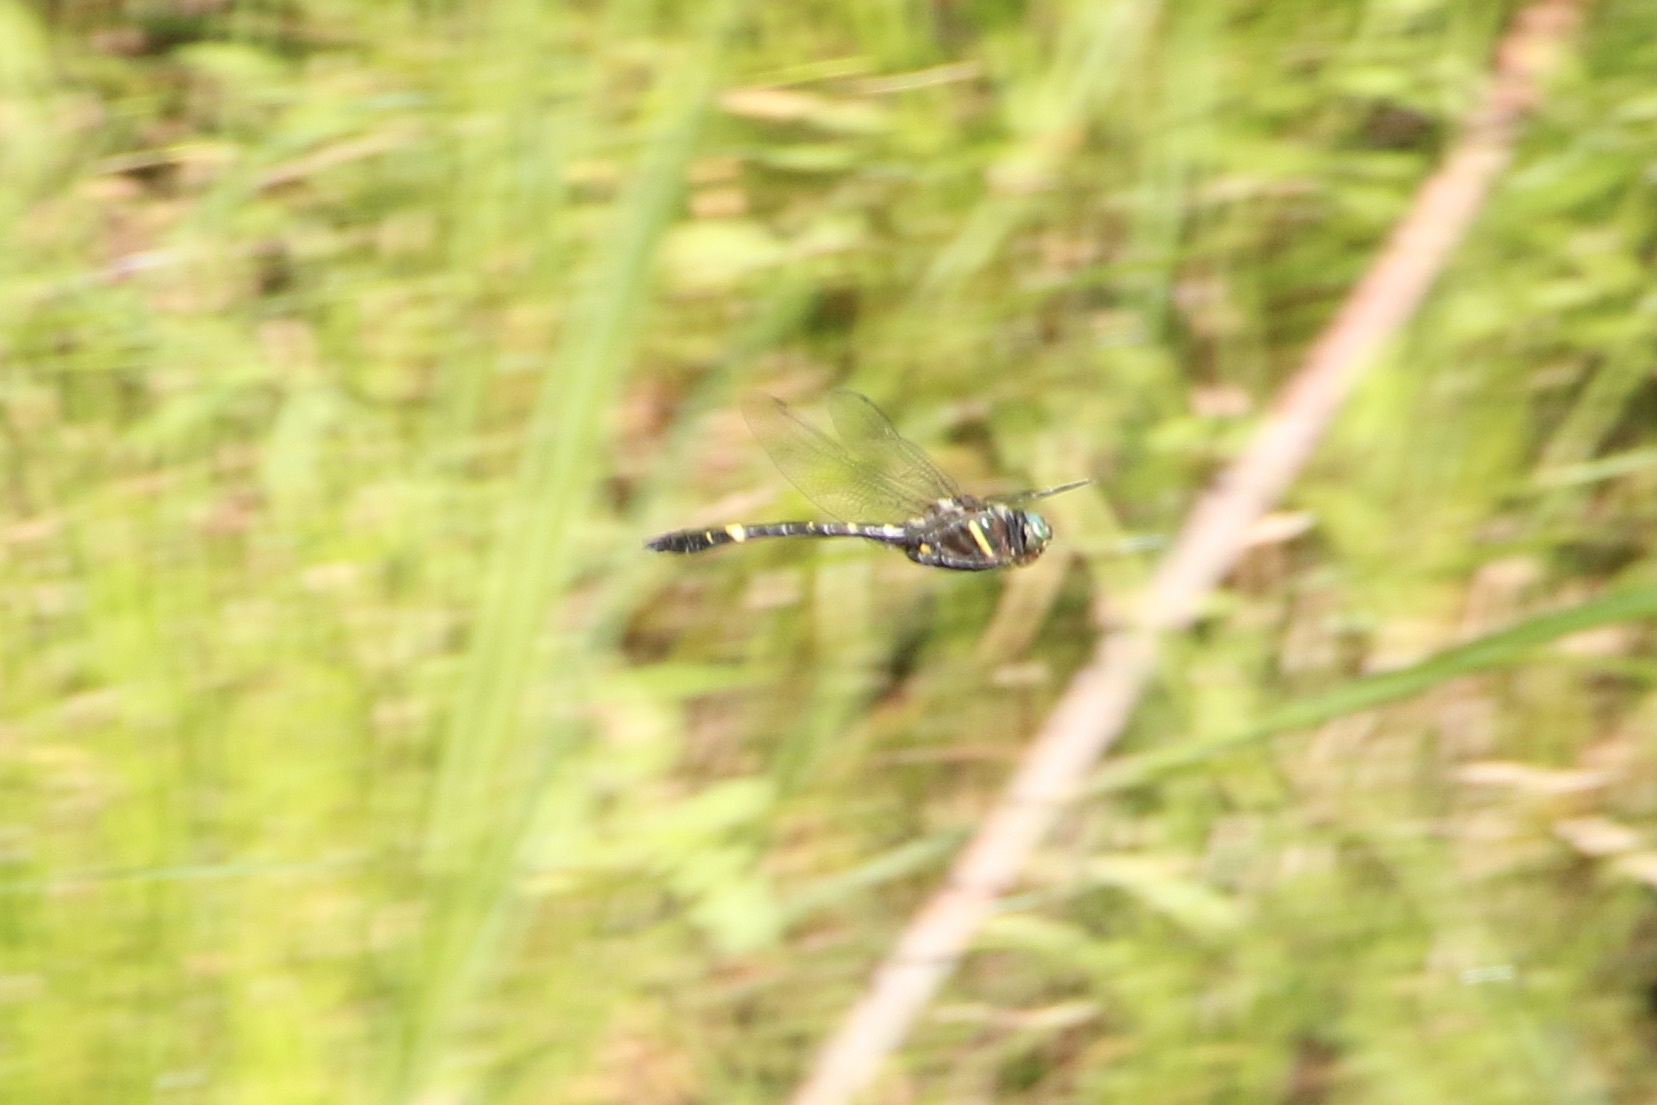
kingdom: Animalia
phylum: Arthropoda
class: Insecta
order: Odonata
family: Macromiidae
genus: Macromia
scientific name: Macromia illinoiensis
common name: Swift river cruiser
